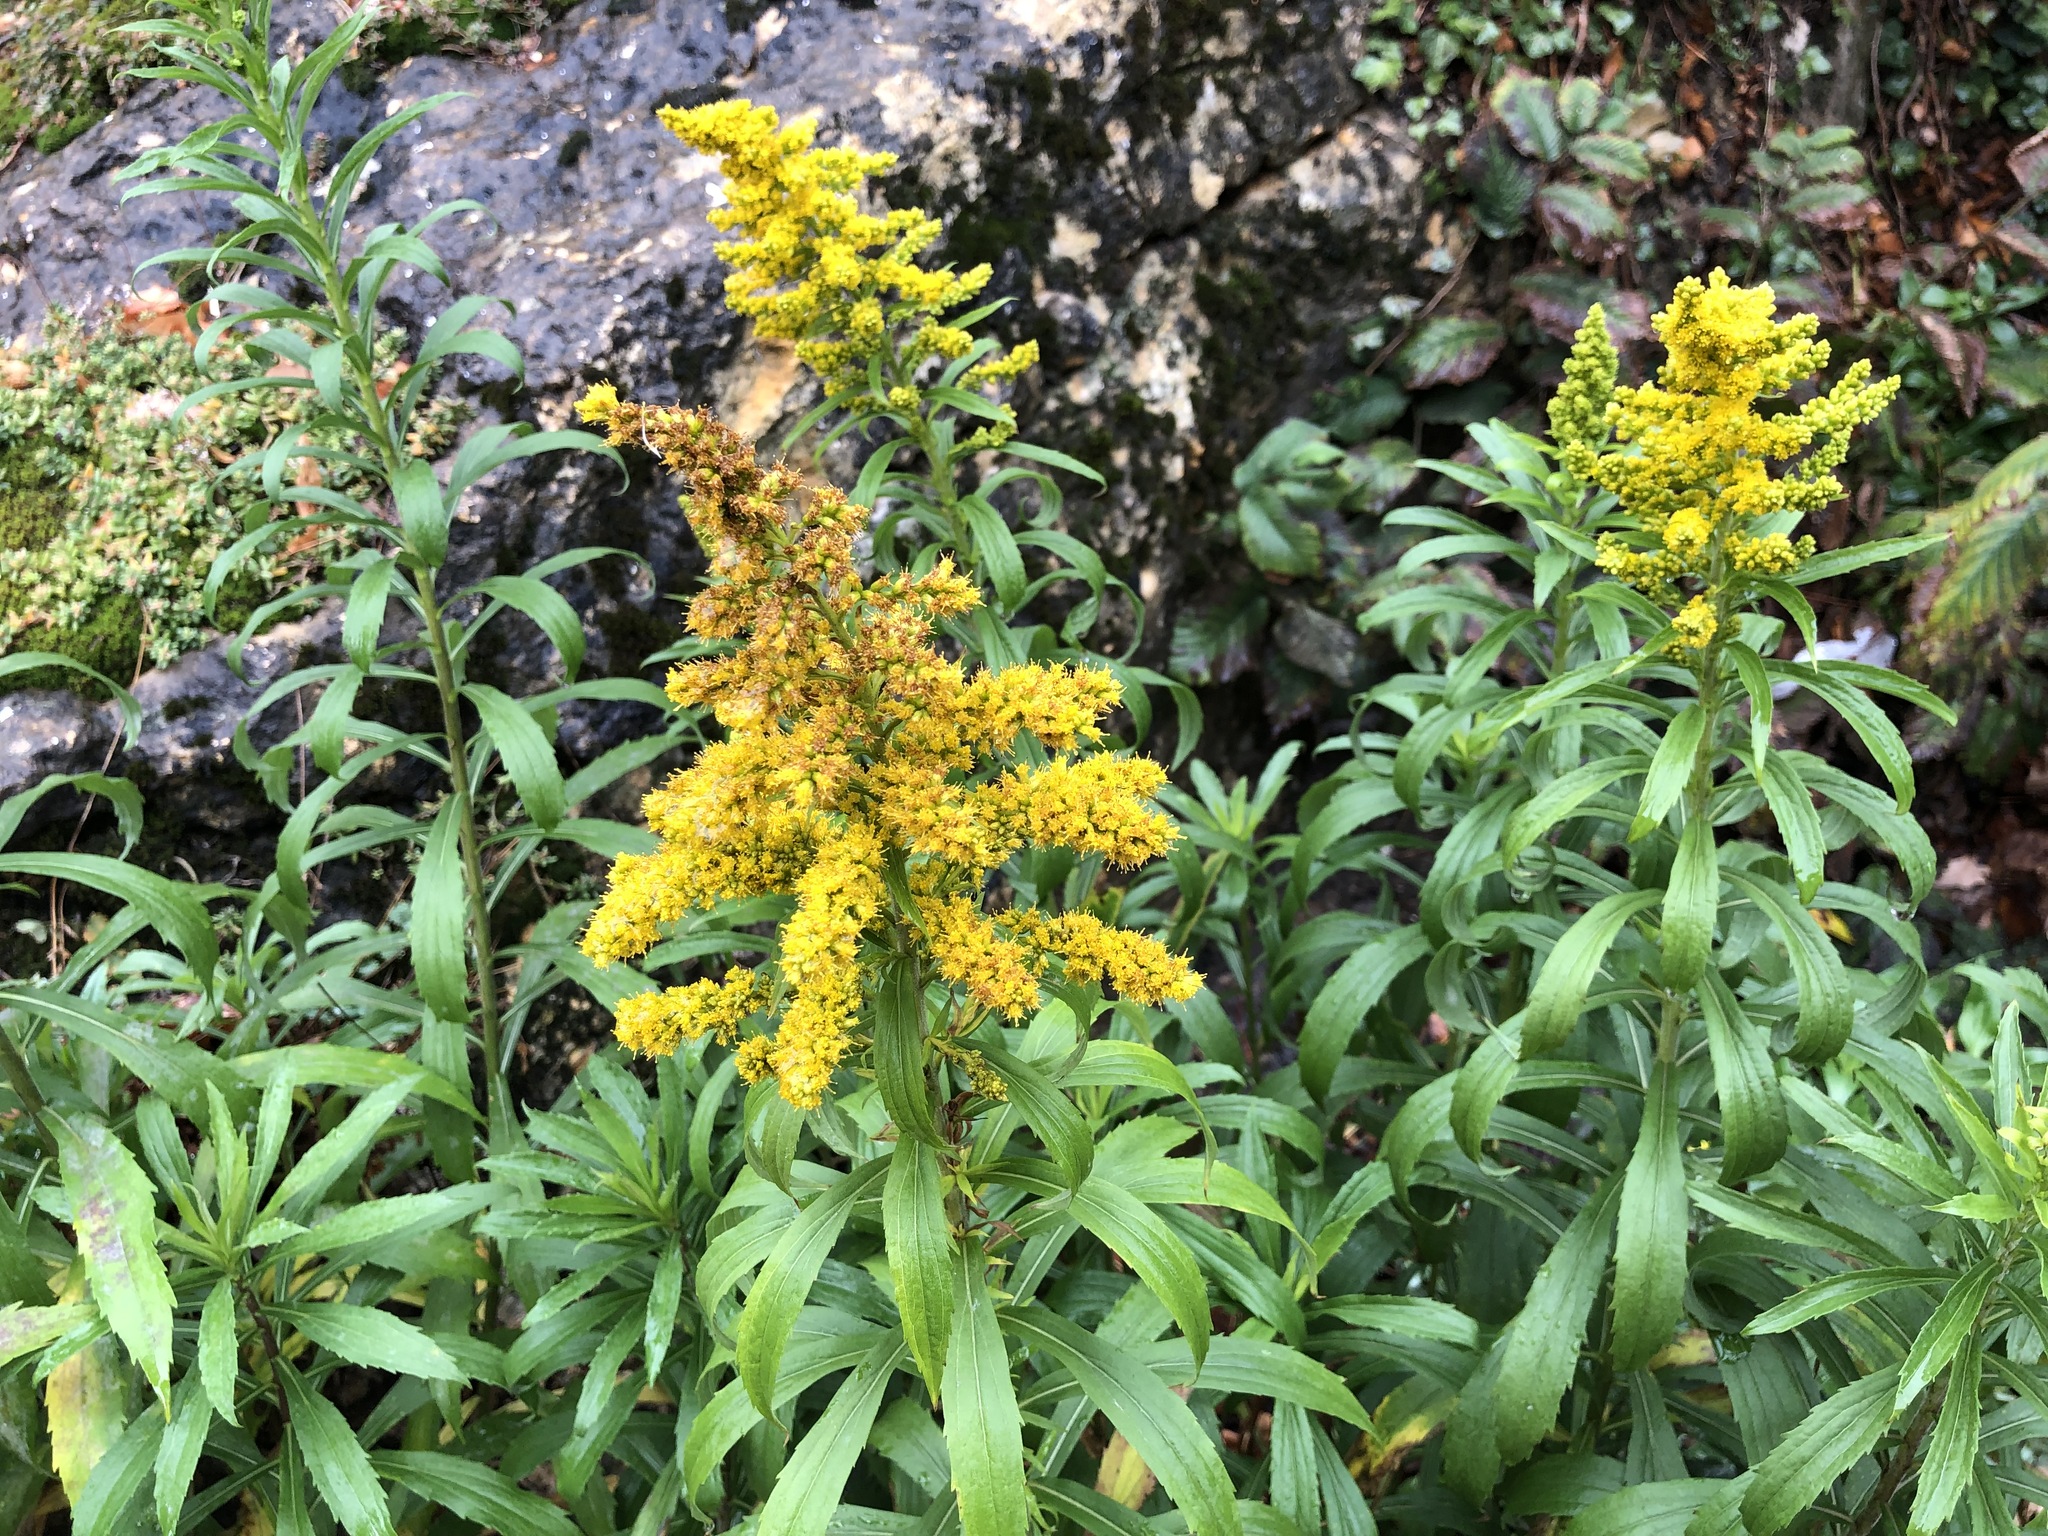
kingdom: Plantae
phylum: Tracheophyta
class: Magnoliopsida
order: Asterales
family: Asteraceae
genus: Solidago
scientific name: Solidago canadensis
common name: Canada goldenrod
